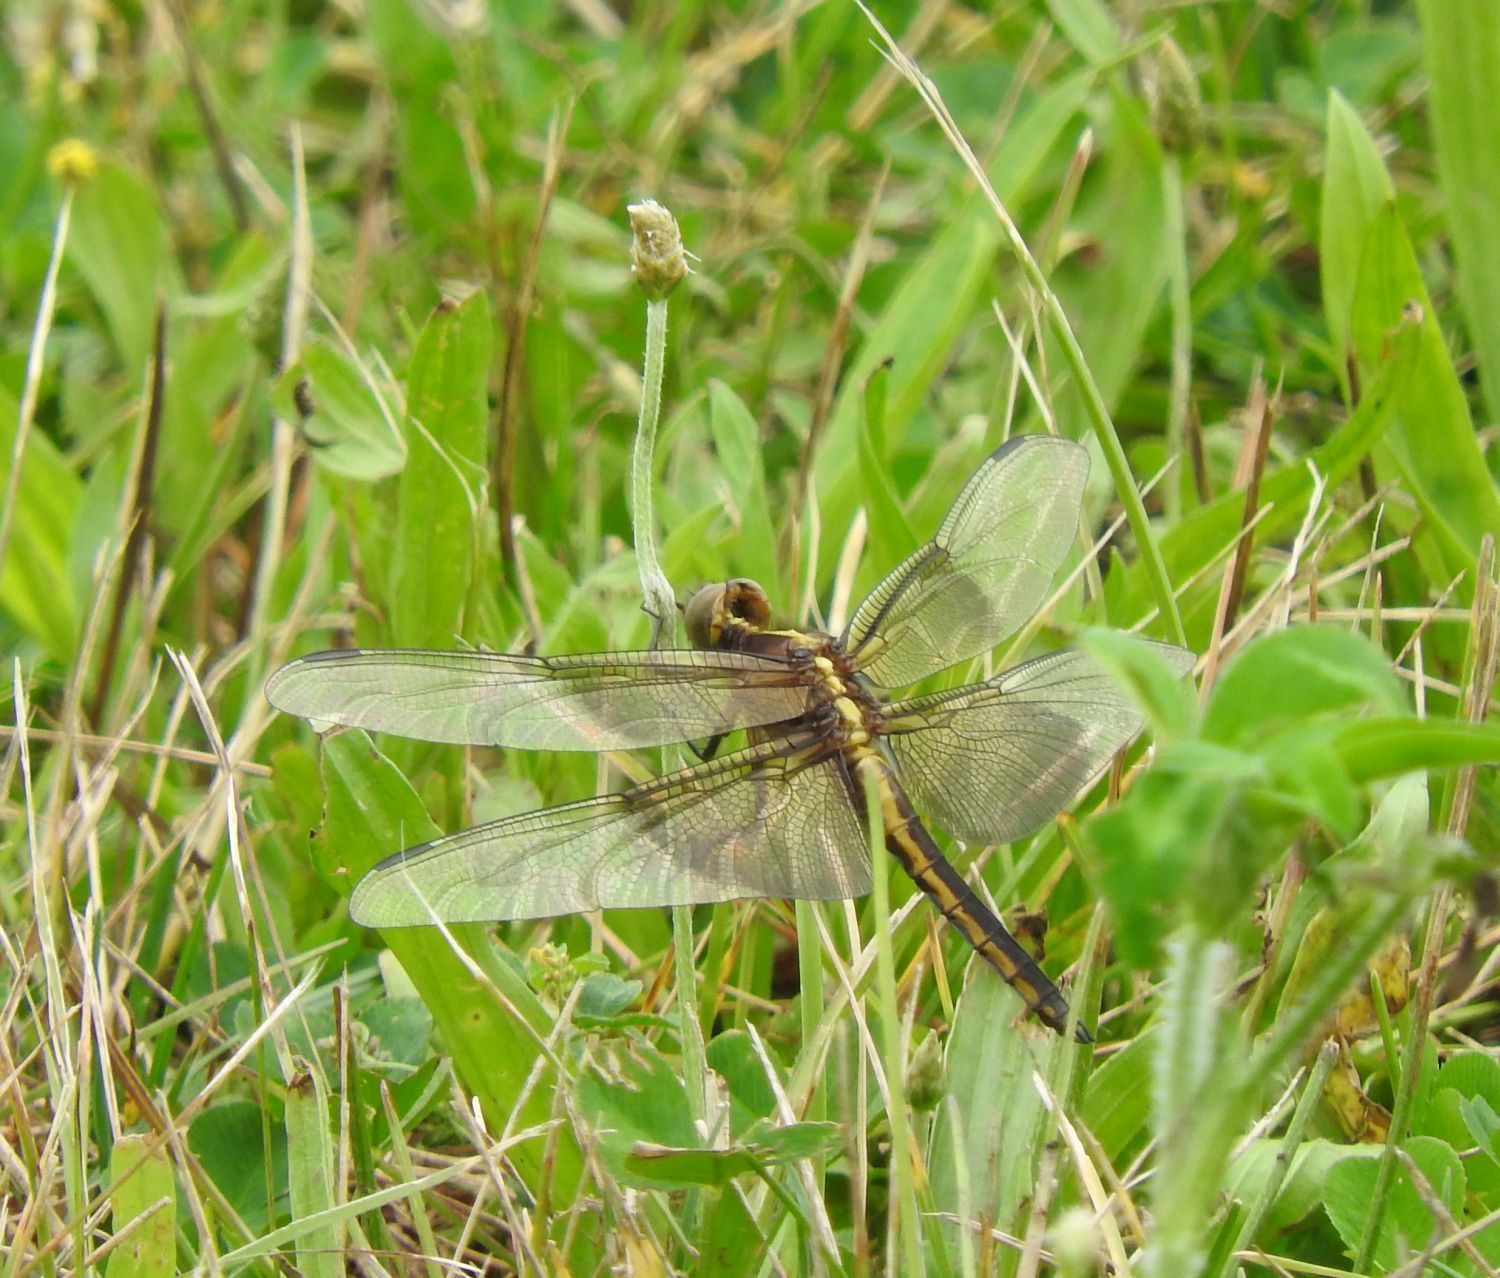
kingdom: Animalia
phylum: Arthropoda
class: Insecta
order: Odonata
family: Libellulidae
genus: Libellula
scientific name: Libellula luctuosa
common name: Widow skimmer
